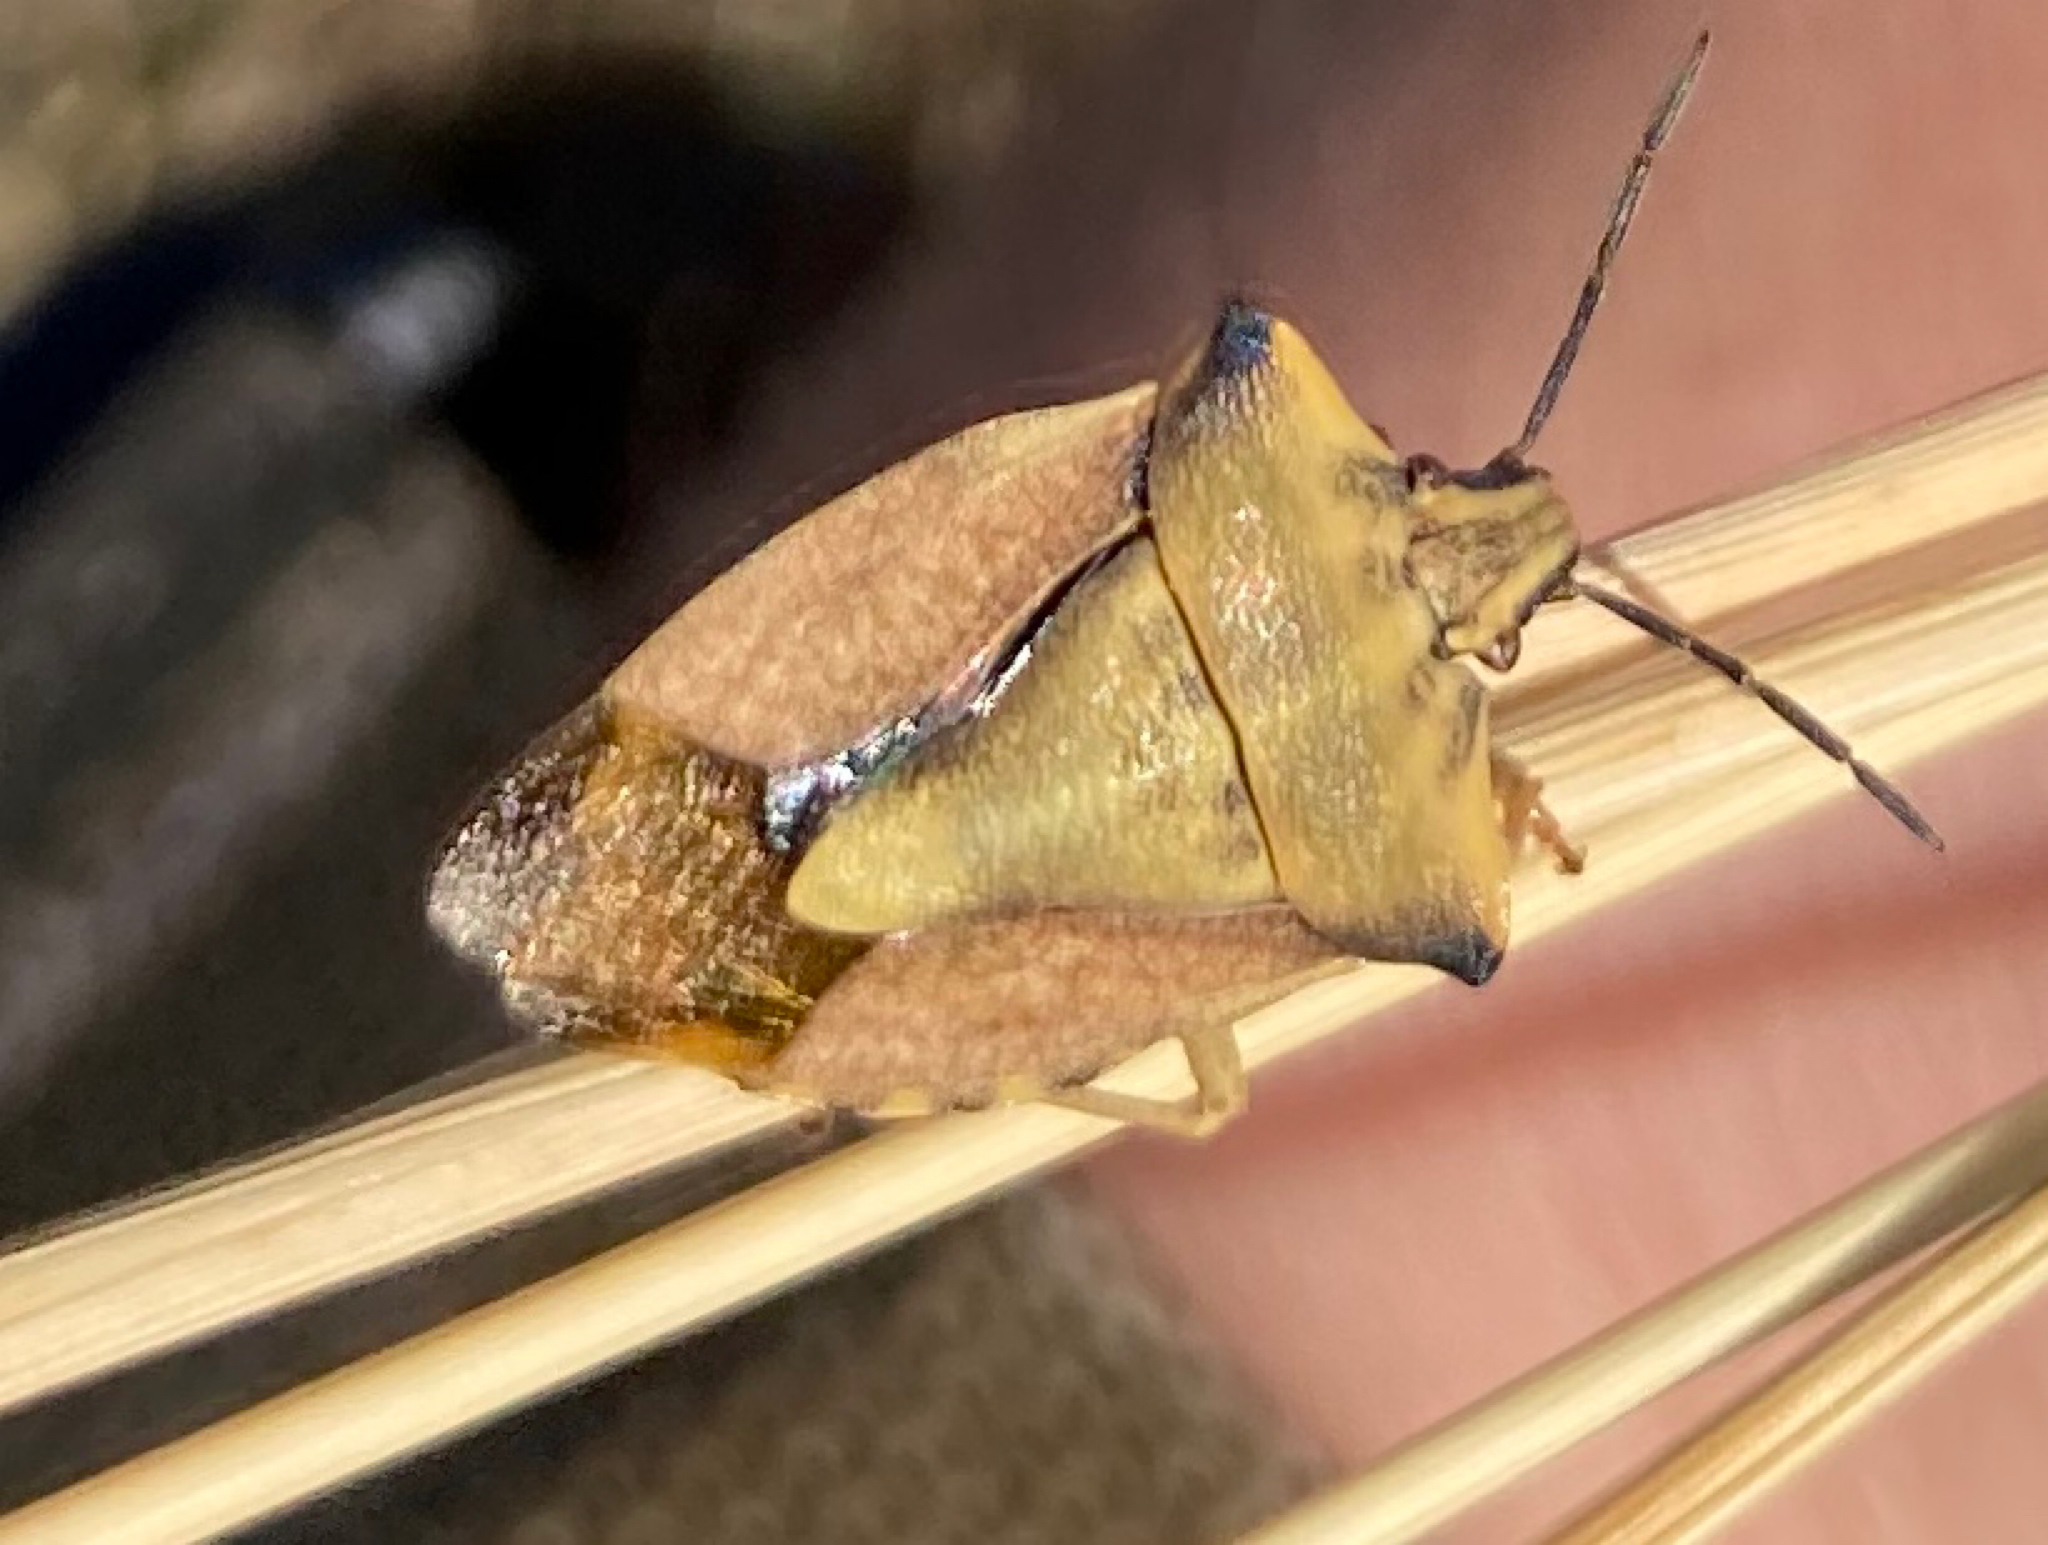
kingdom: Animalia
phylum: Arthropoda
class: Insecta
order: Hemiptera
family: Pentatomidae
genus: Carpocoris
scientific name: Carpocoris fuscispinus
